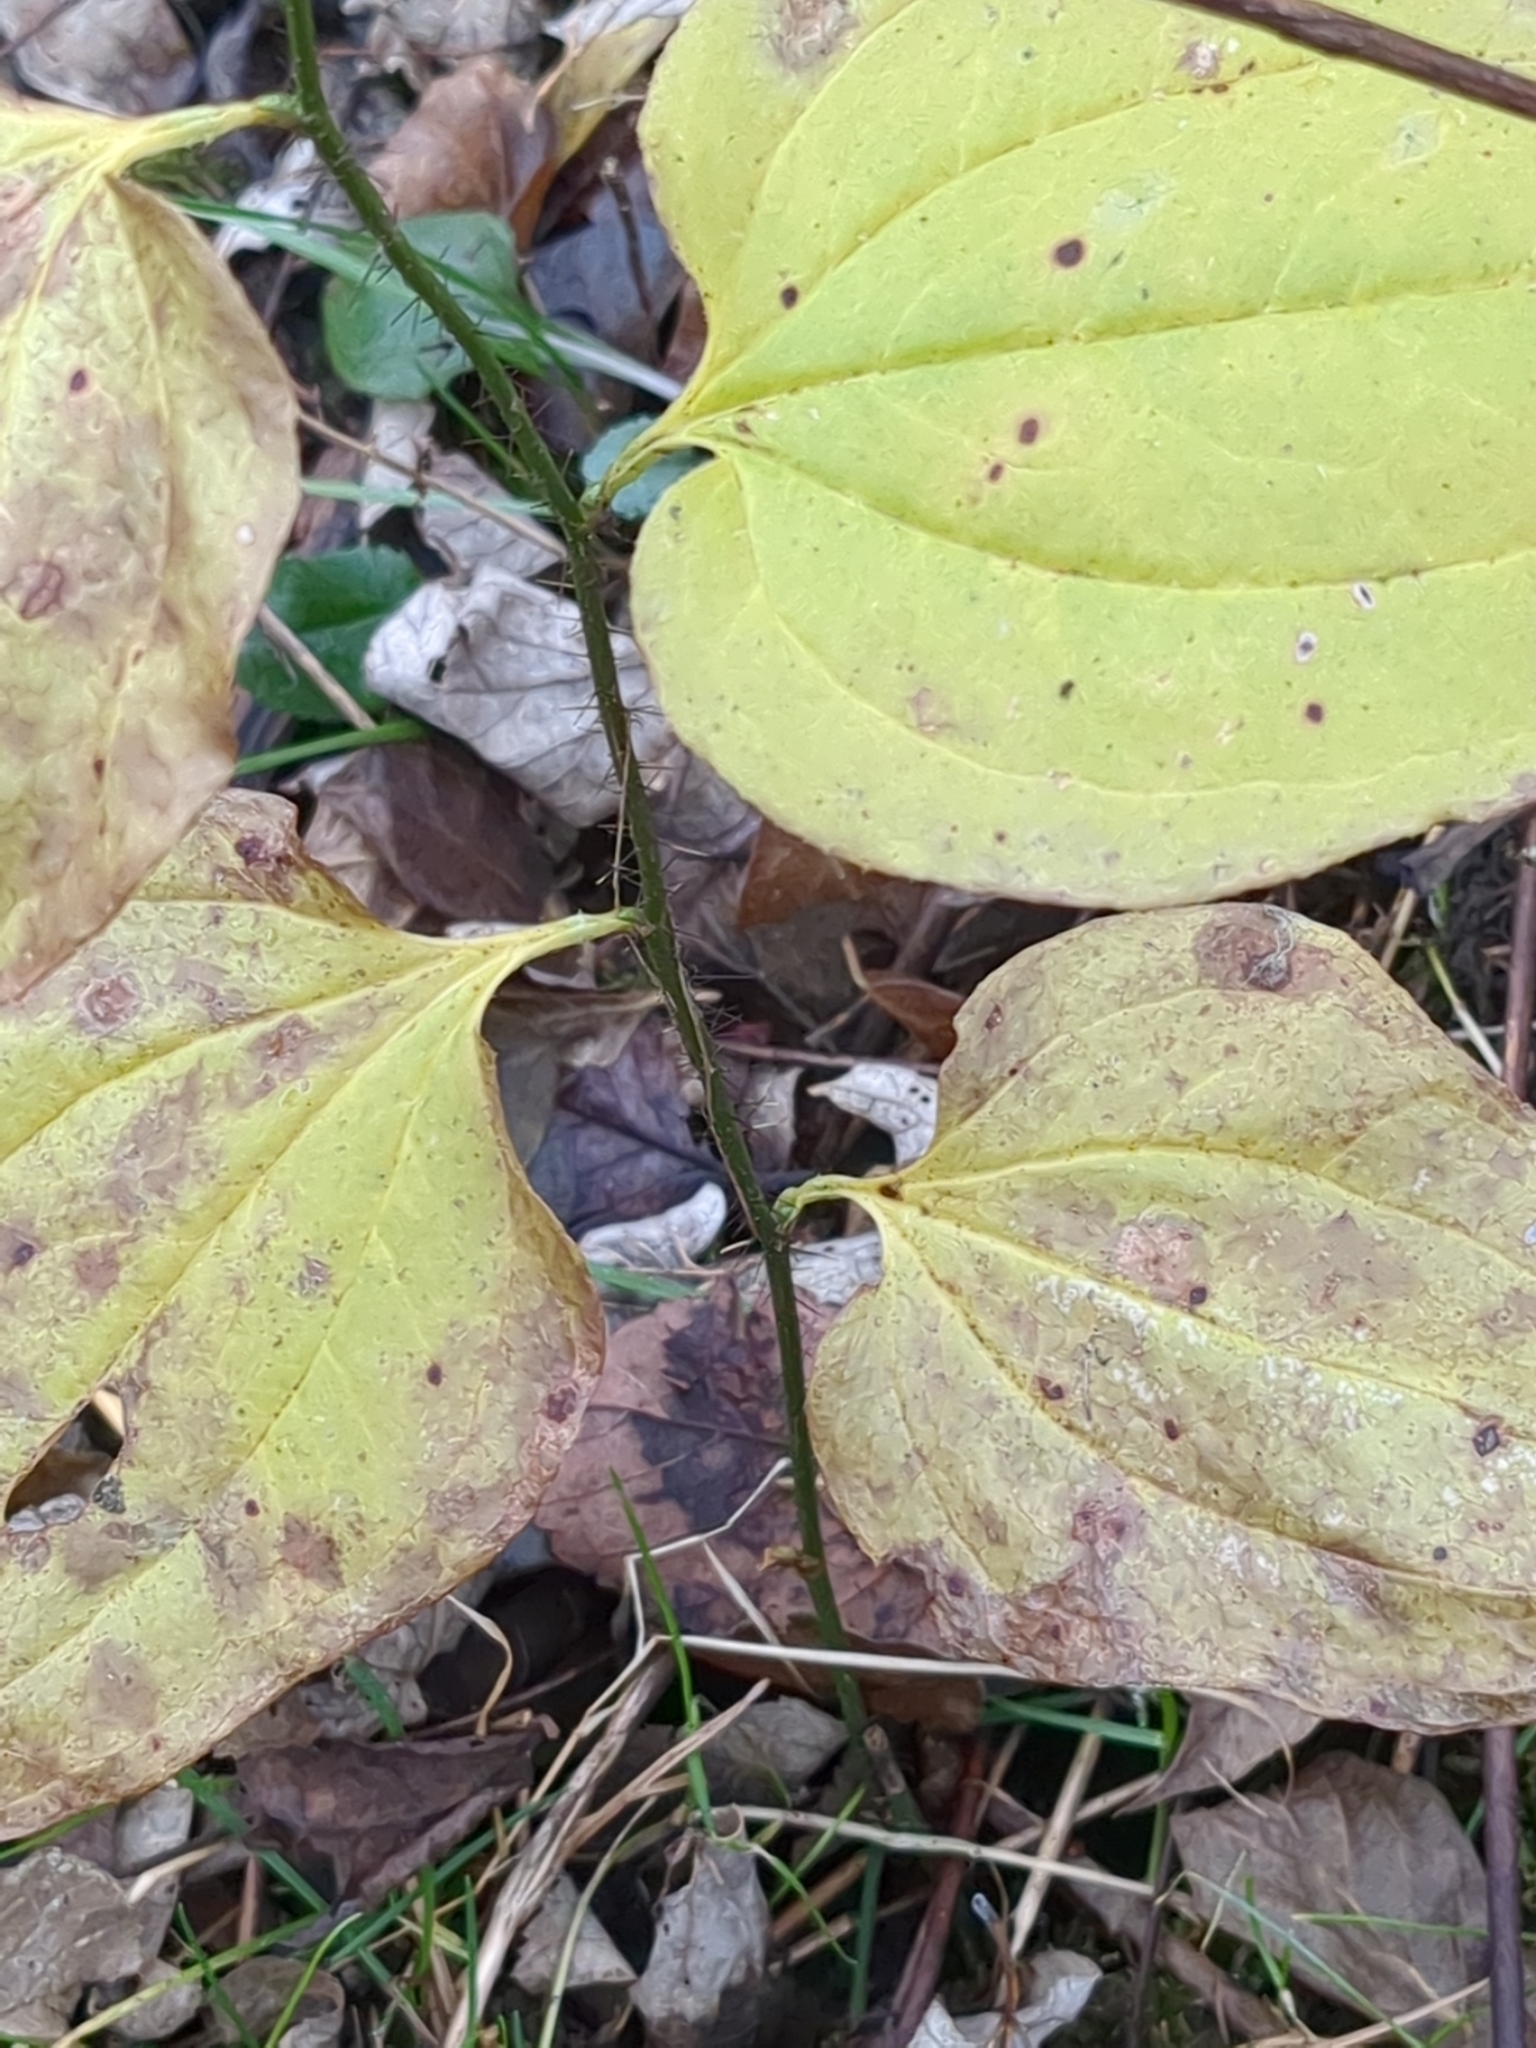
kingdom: Plantae
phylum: Tracheophyta
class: Liliopsida
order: Liliales
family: Smilacaceae
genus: Smilax
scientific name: Smilax tamnoides
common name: Hellfetter
